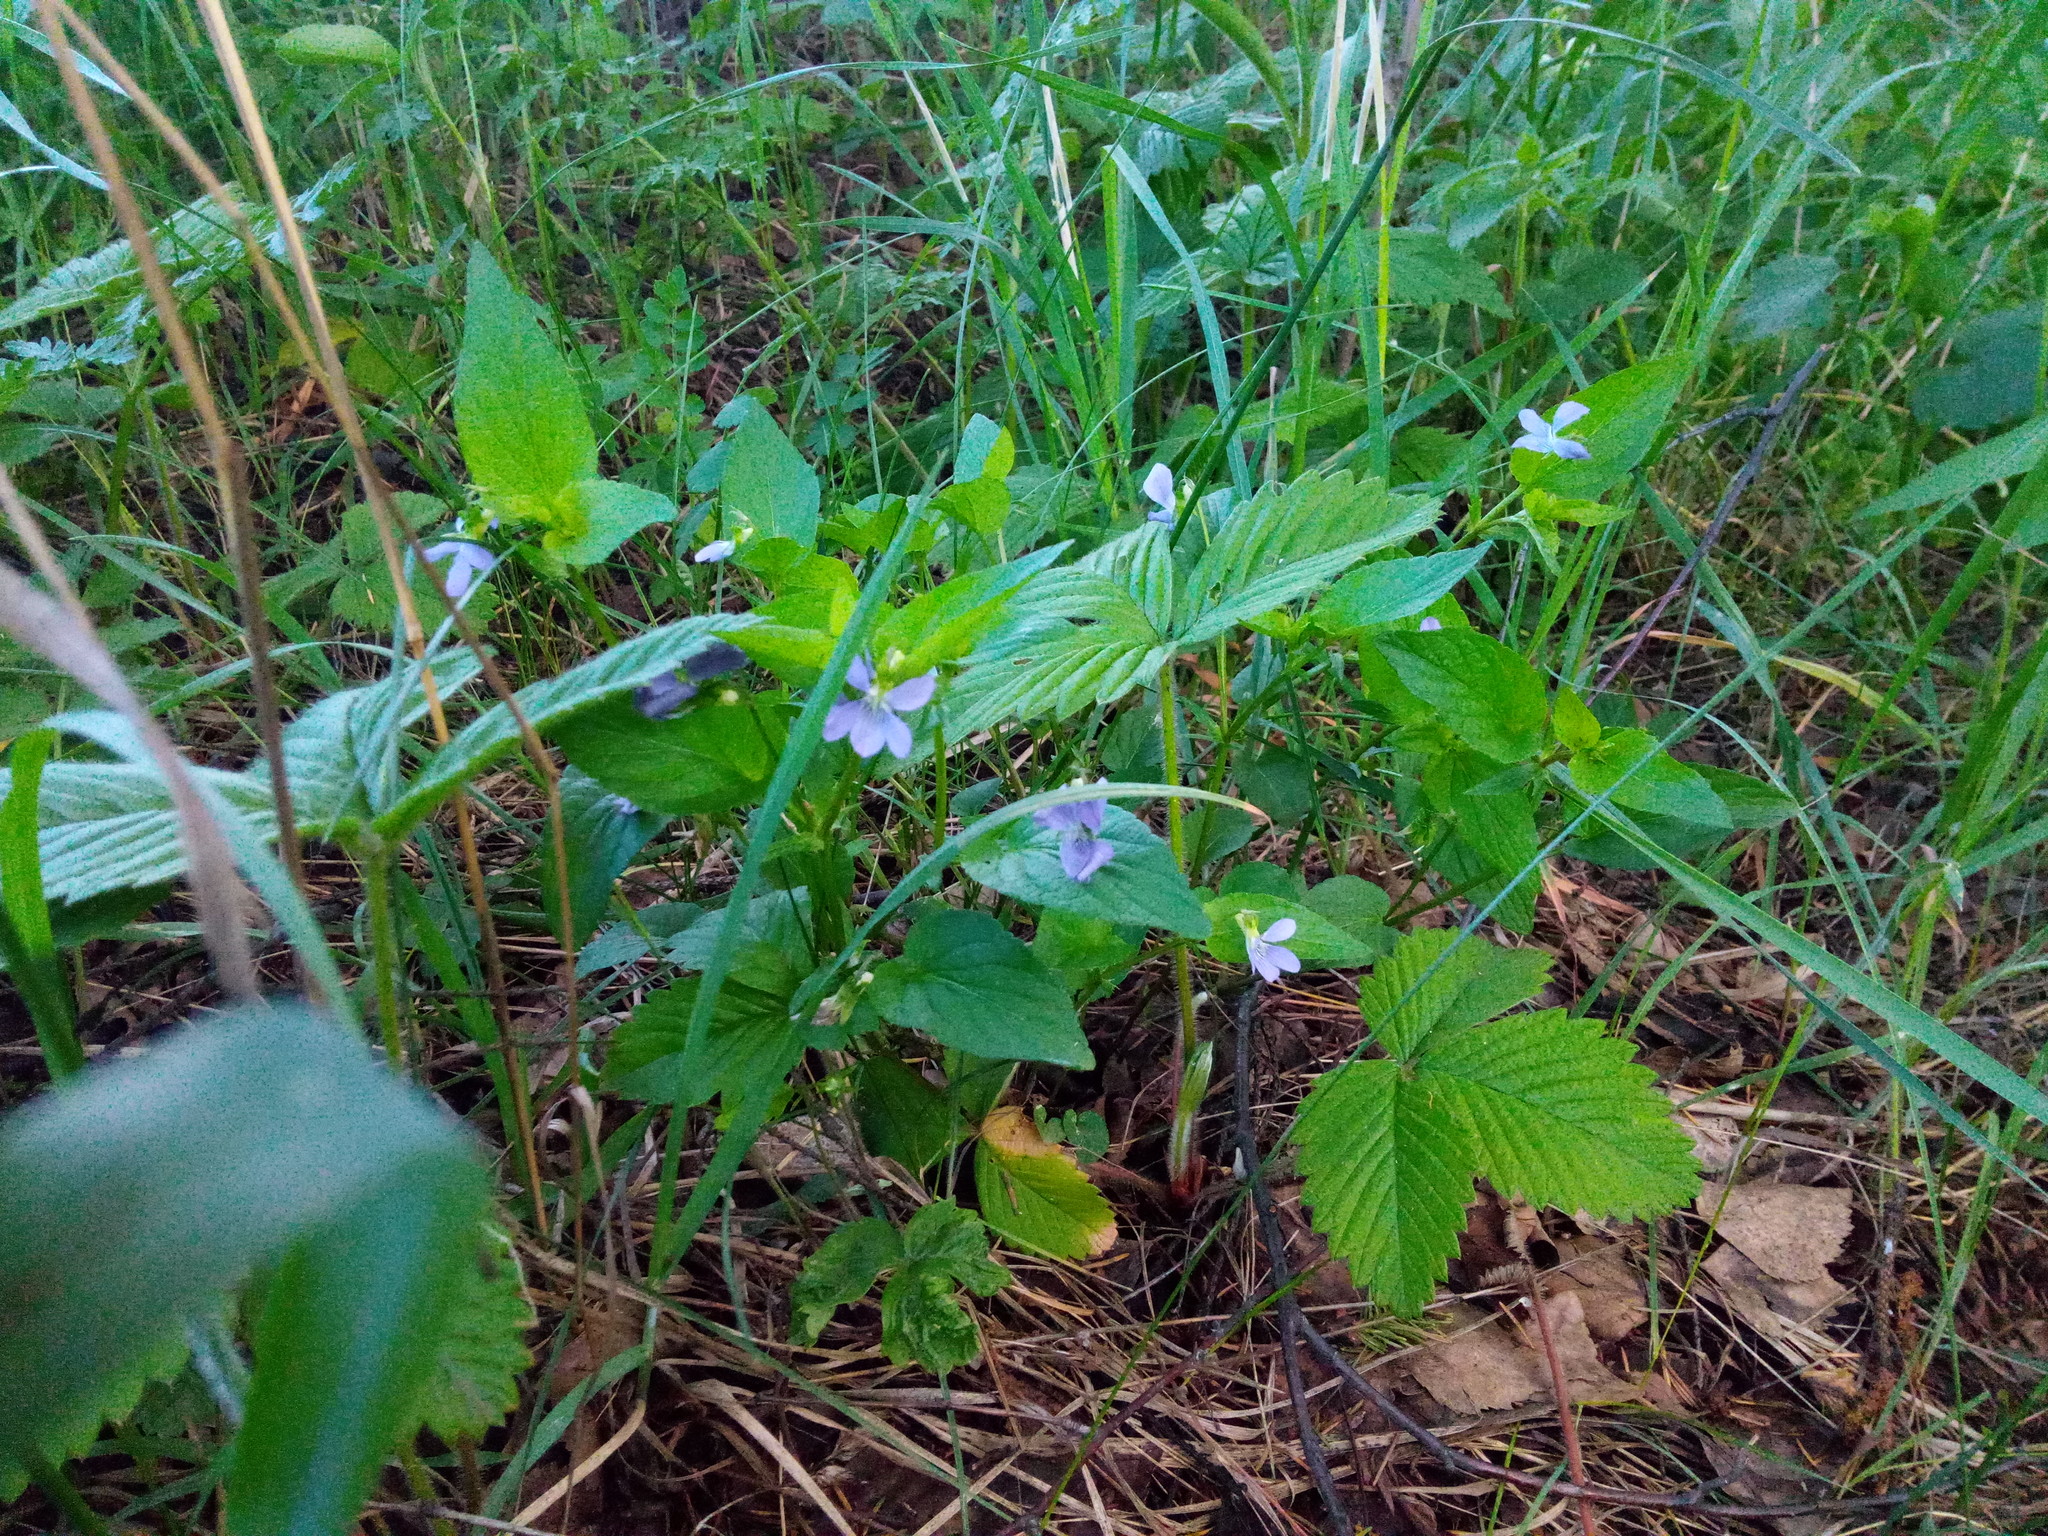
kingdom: Plantae
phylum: Tracheophyta
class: Magnoliopsida
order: Malpighiales
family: Violaceae
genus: Viola
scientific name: Viola canina
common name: Heath dog-violet
